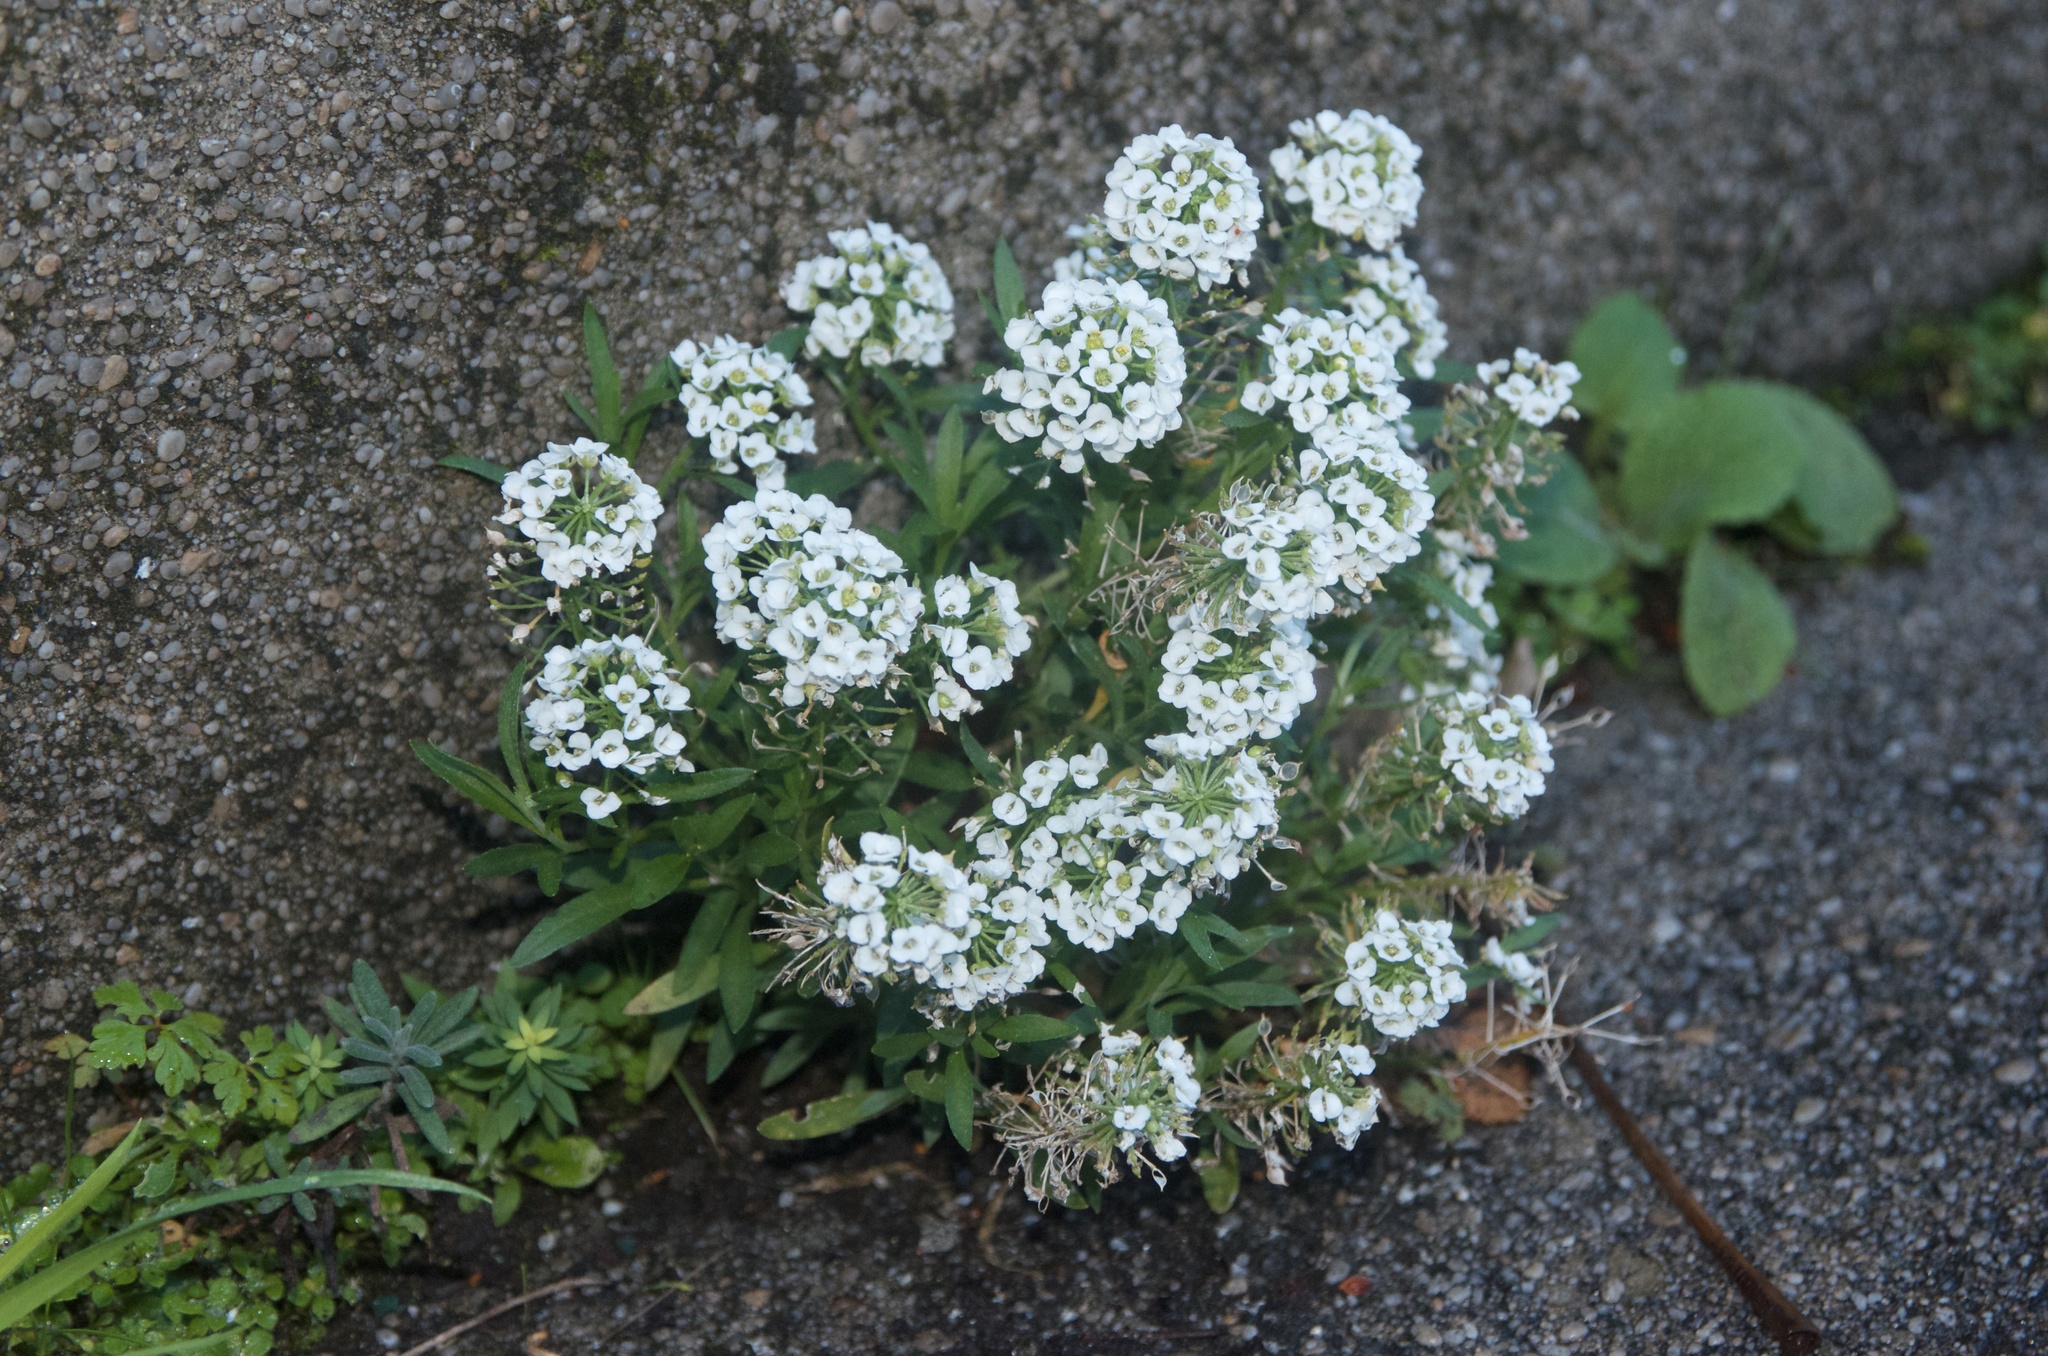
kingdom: Plantae
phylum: Tracheophyta
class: Magnoliopsida
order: Brassicales
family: Brassicaceae
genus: Lobularia
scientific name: Lobularia maritima
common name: Sweet alison
